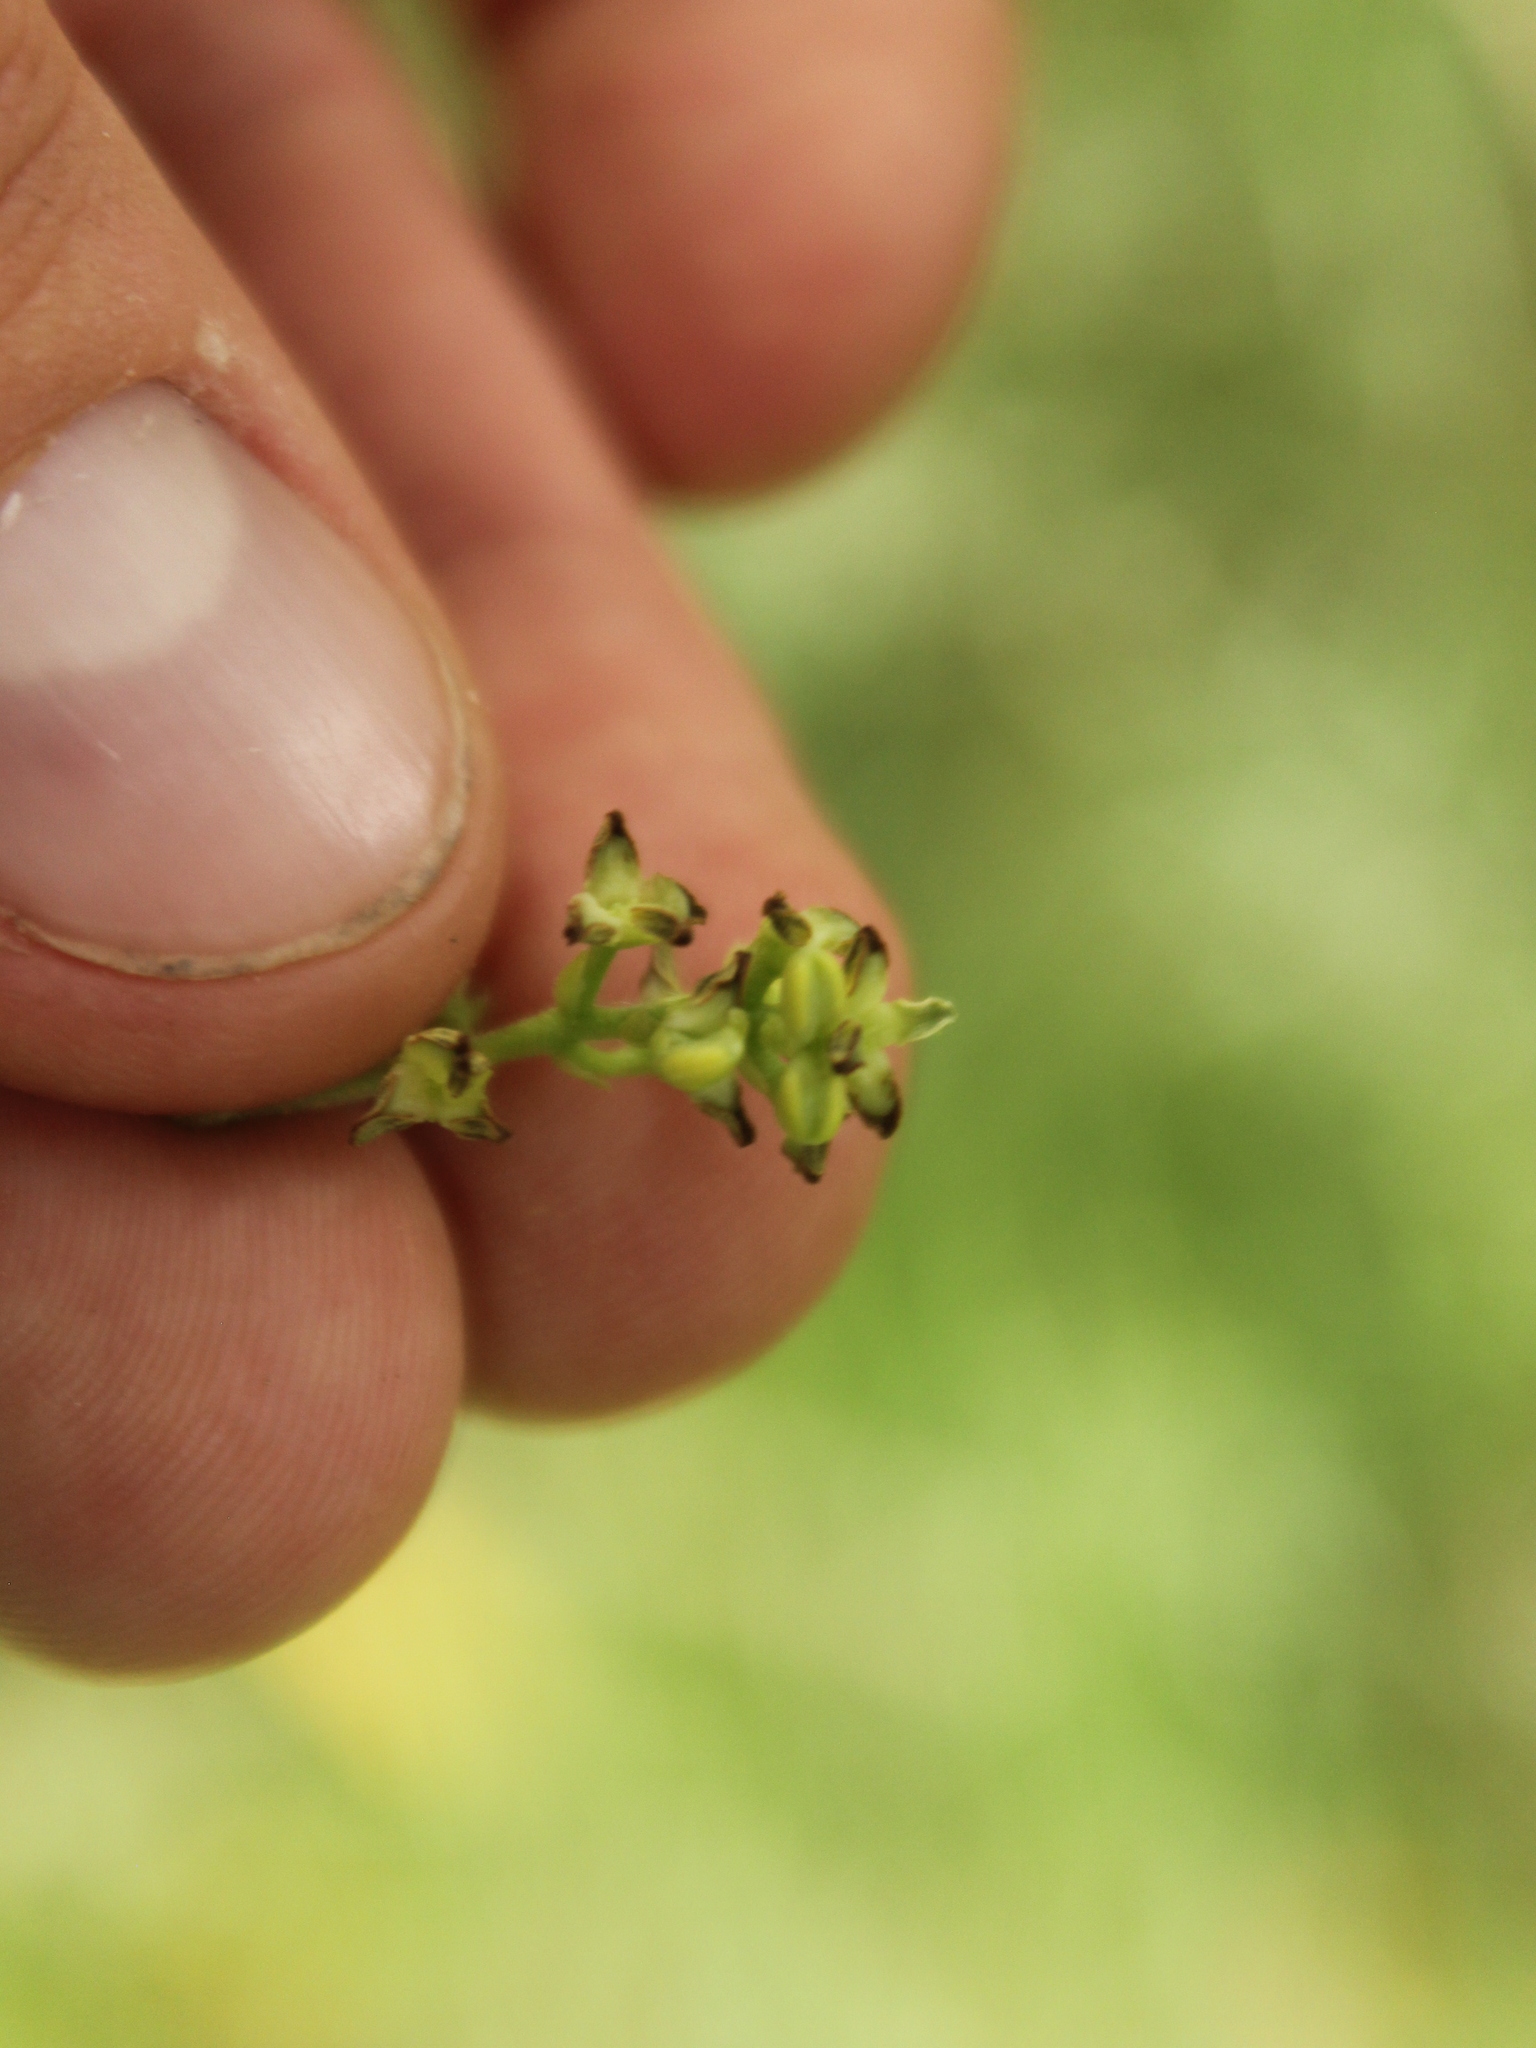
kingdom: Plantae
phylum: Tracheophyta
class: Magnoliopsida
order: Lamiales
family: Oleaceae
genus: Nestegis
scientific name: Nestegis cunninghamii
